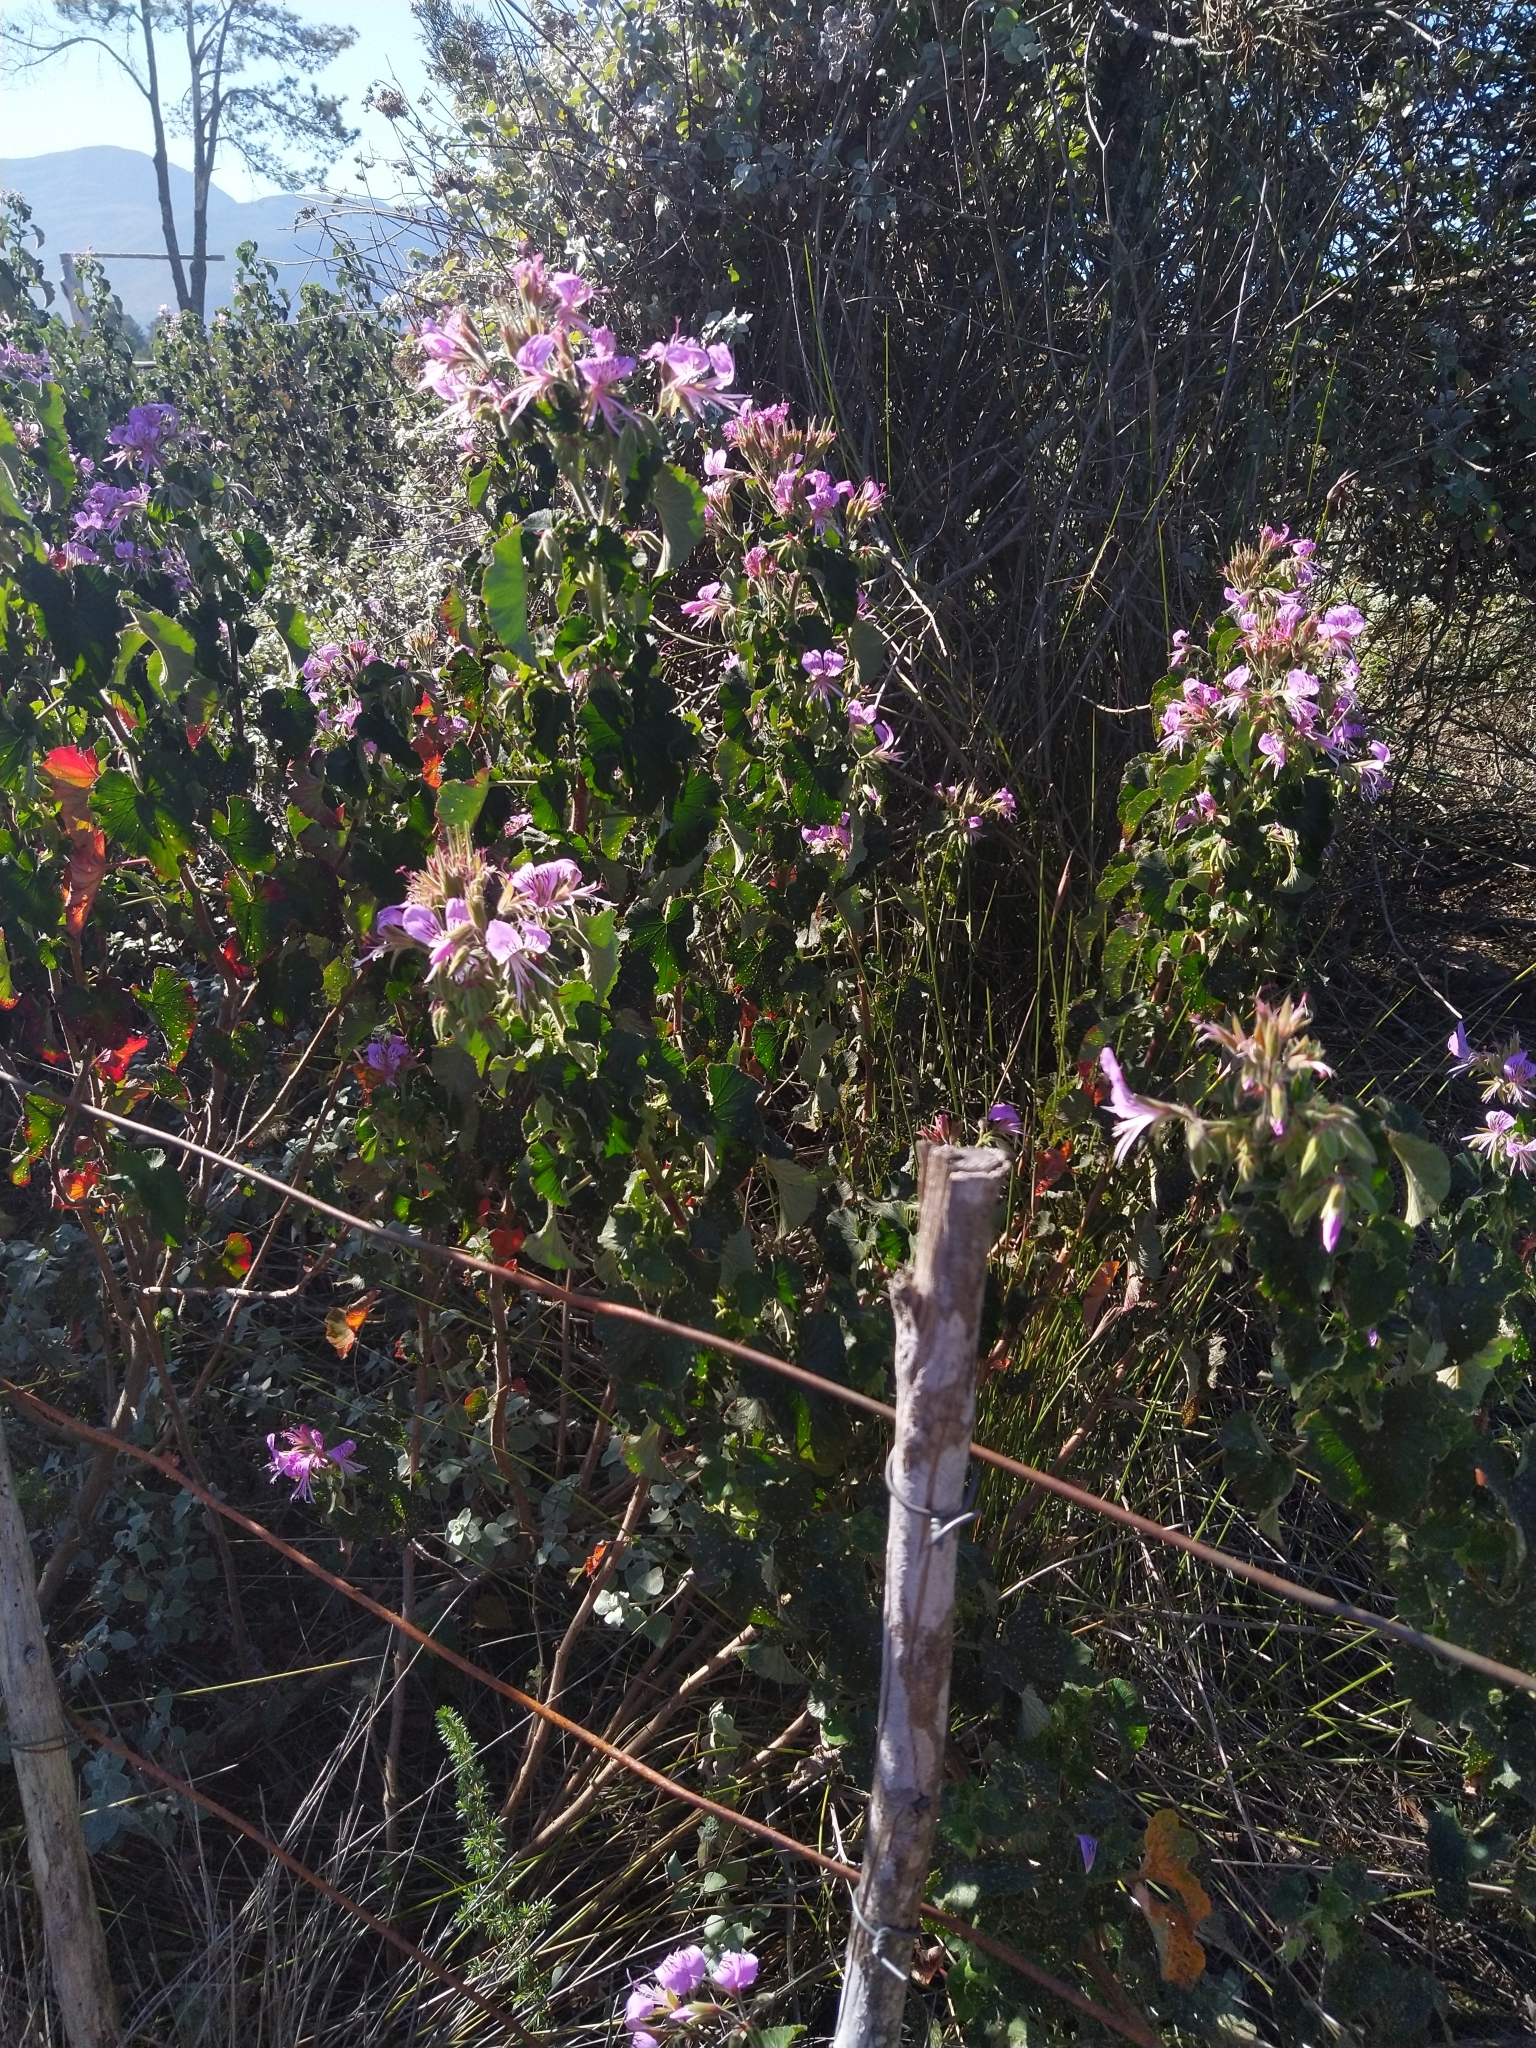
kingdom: Plantae
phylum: Tracheophyta
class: Magnoliopsida
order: Geraniales
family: Geraniaceae
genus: Pelargonium
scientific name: Pelargonium cordifolium
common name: Heart-leaf pelargonium
